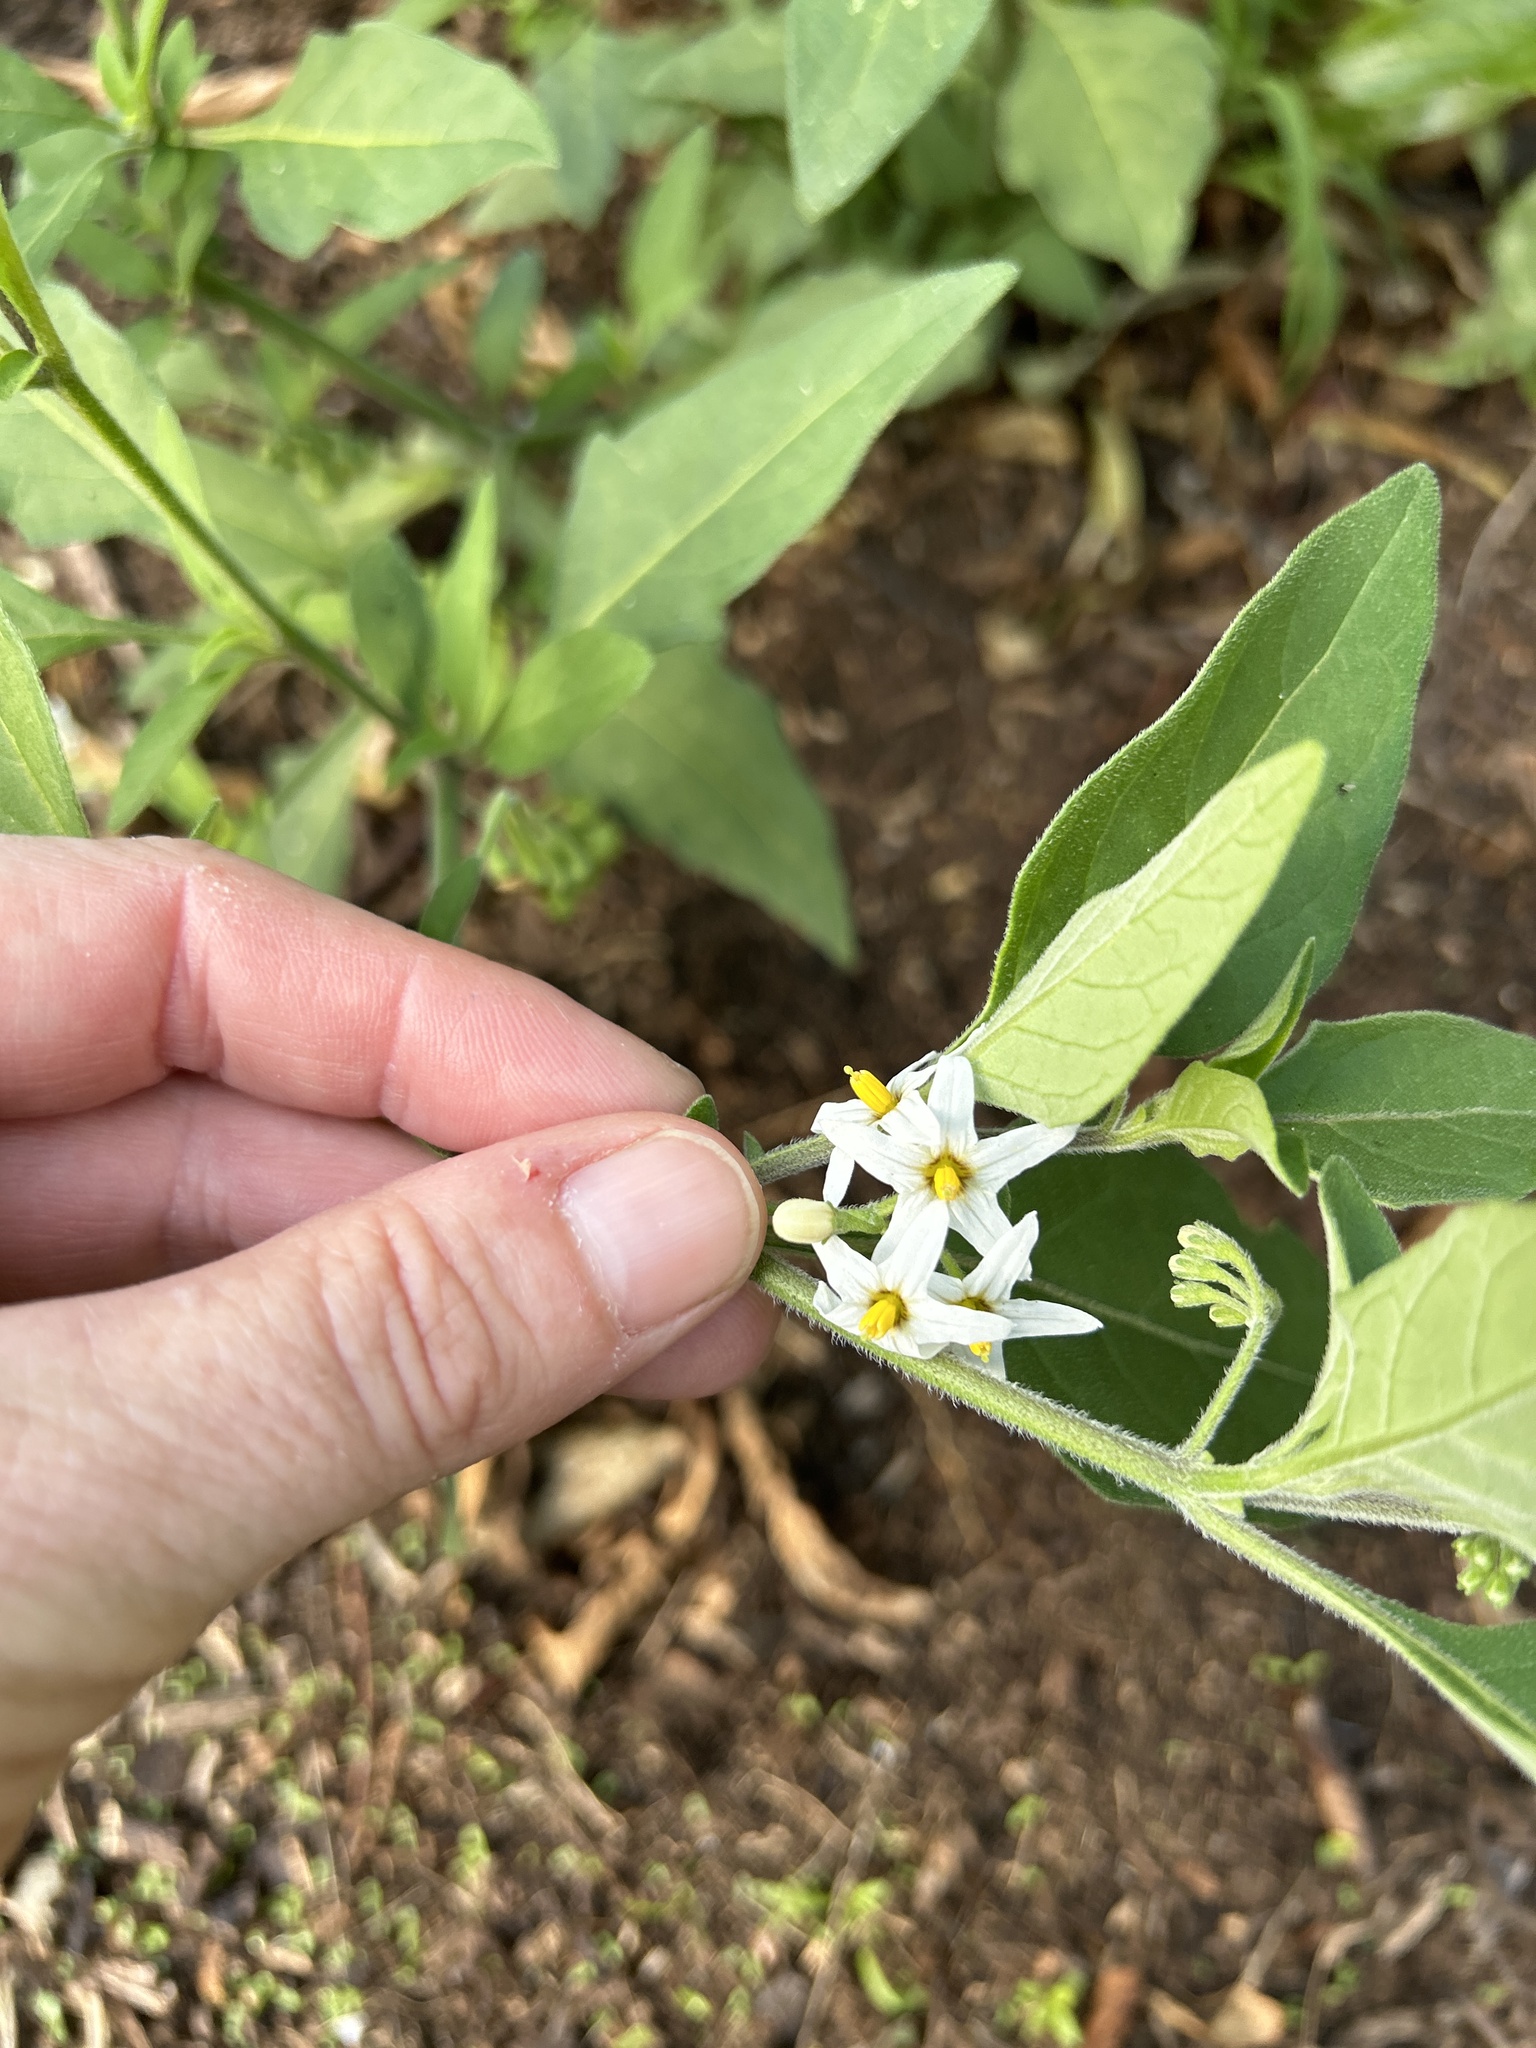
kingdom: Plantae
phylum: Tracheophyta
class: Magnoliopsida
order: Solanales
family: Solanaceae
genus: Solanum
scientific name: Solanum chenopodioides
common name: Tall nightshade
